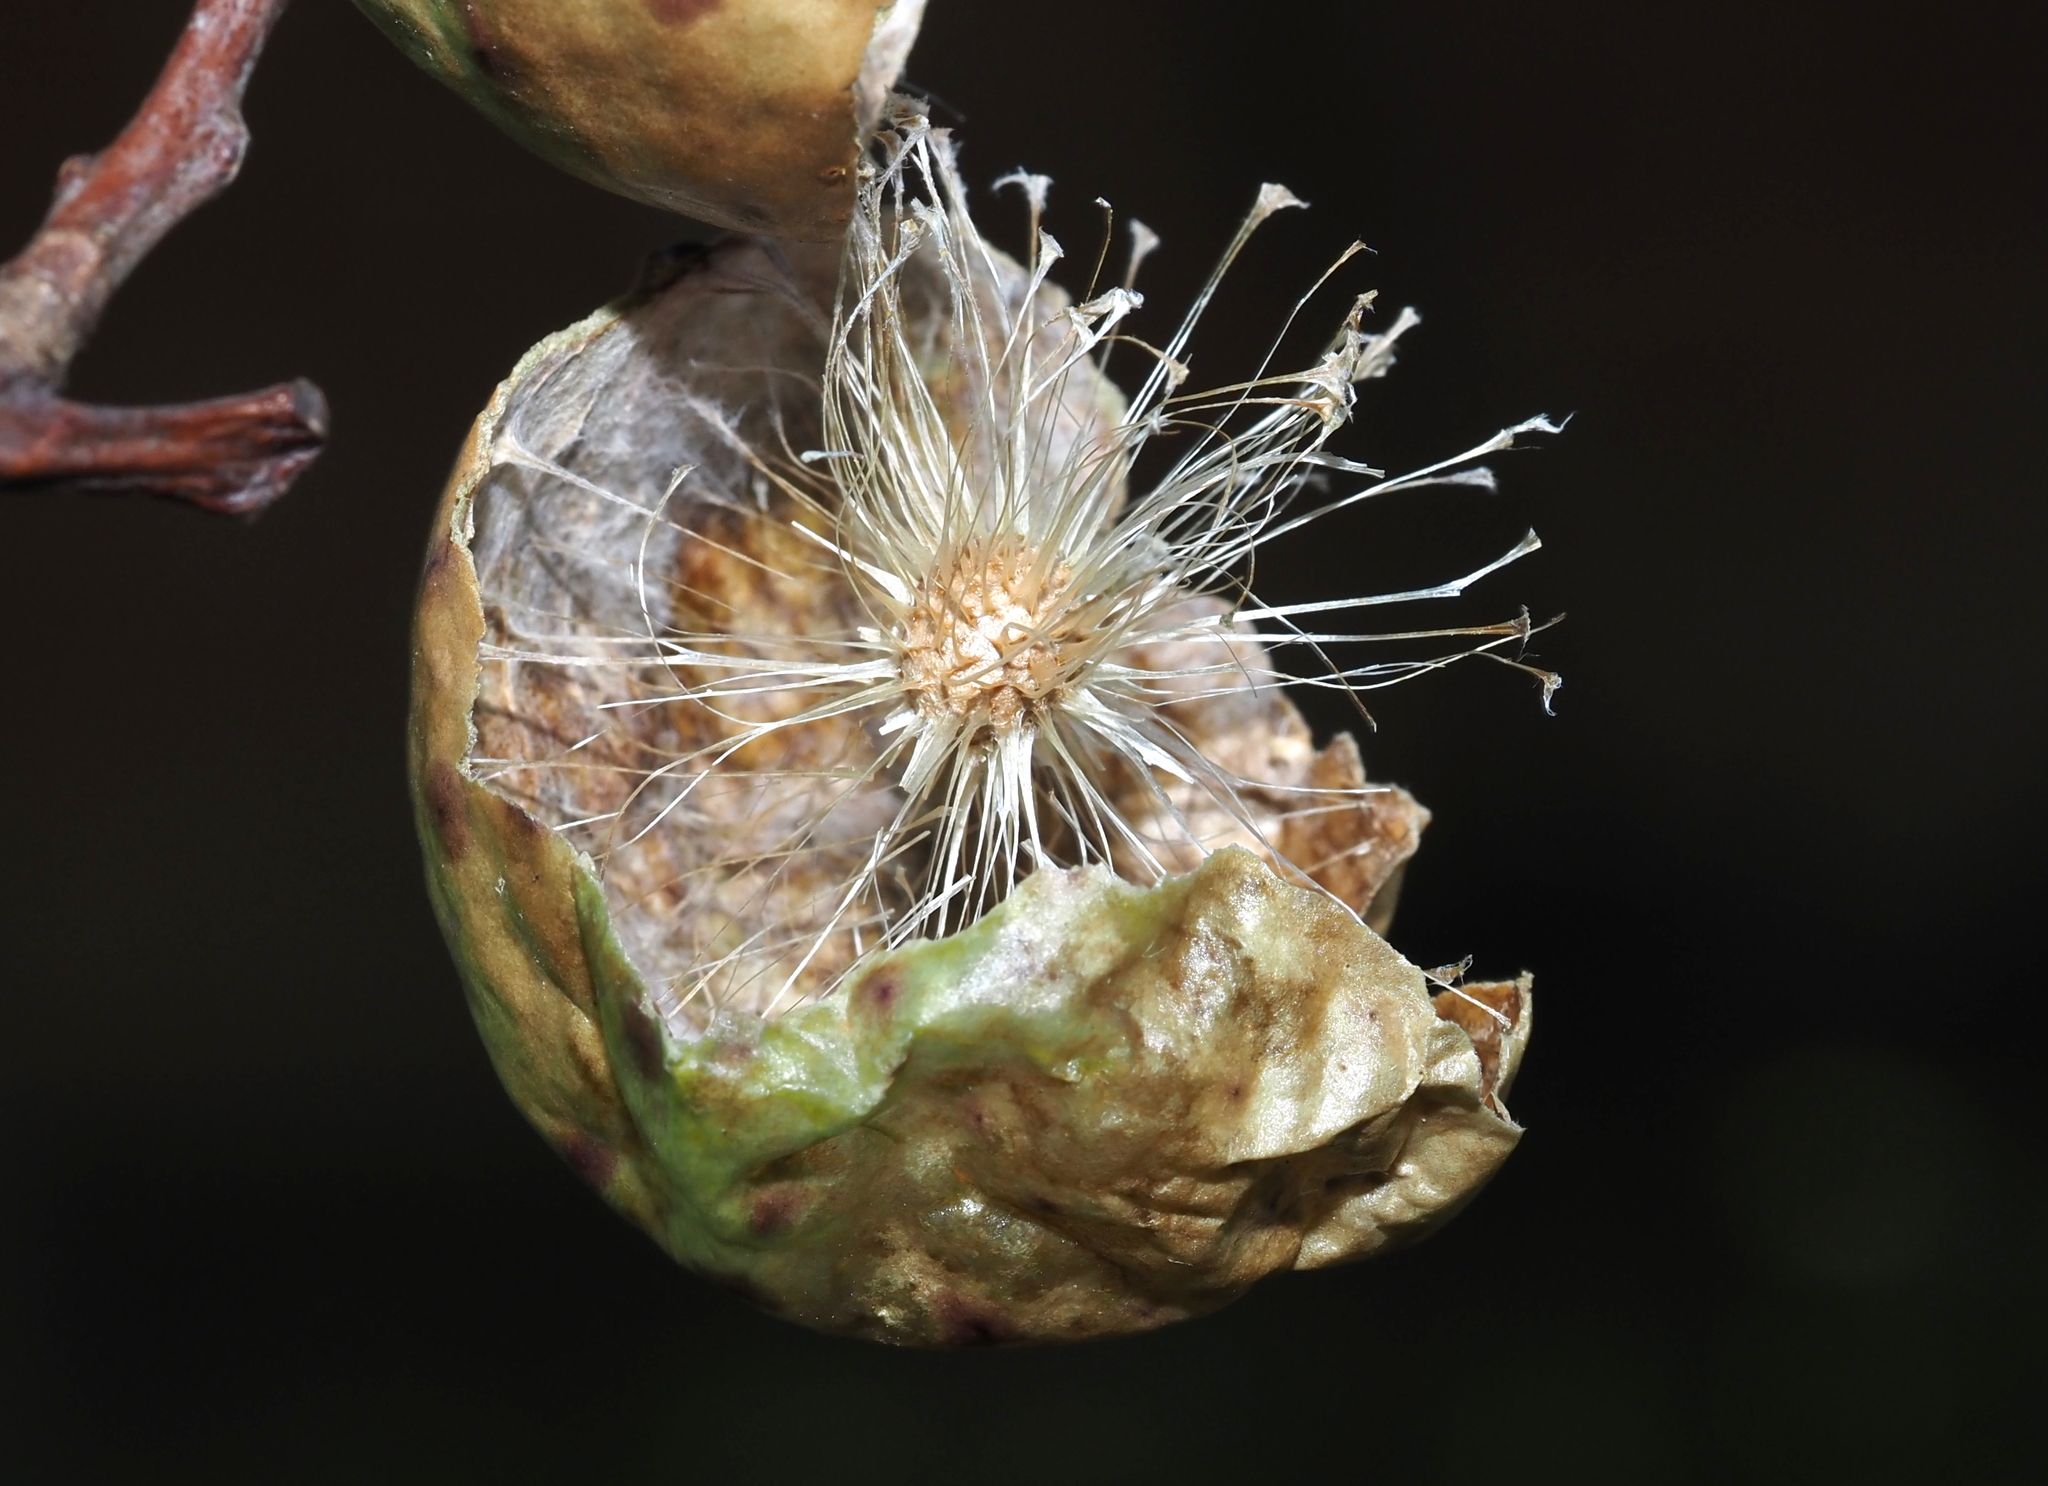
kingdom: Animalia
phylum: Arthropoda
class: Insecta
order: Hymenoptera
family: Cynipidae
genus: Amphibolips
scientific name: Amphibolips
